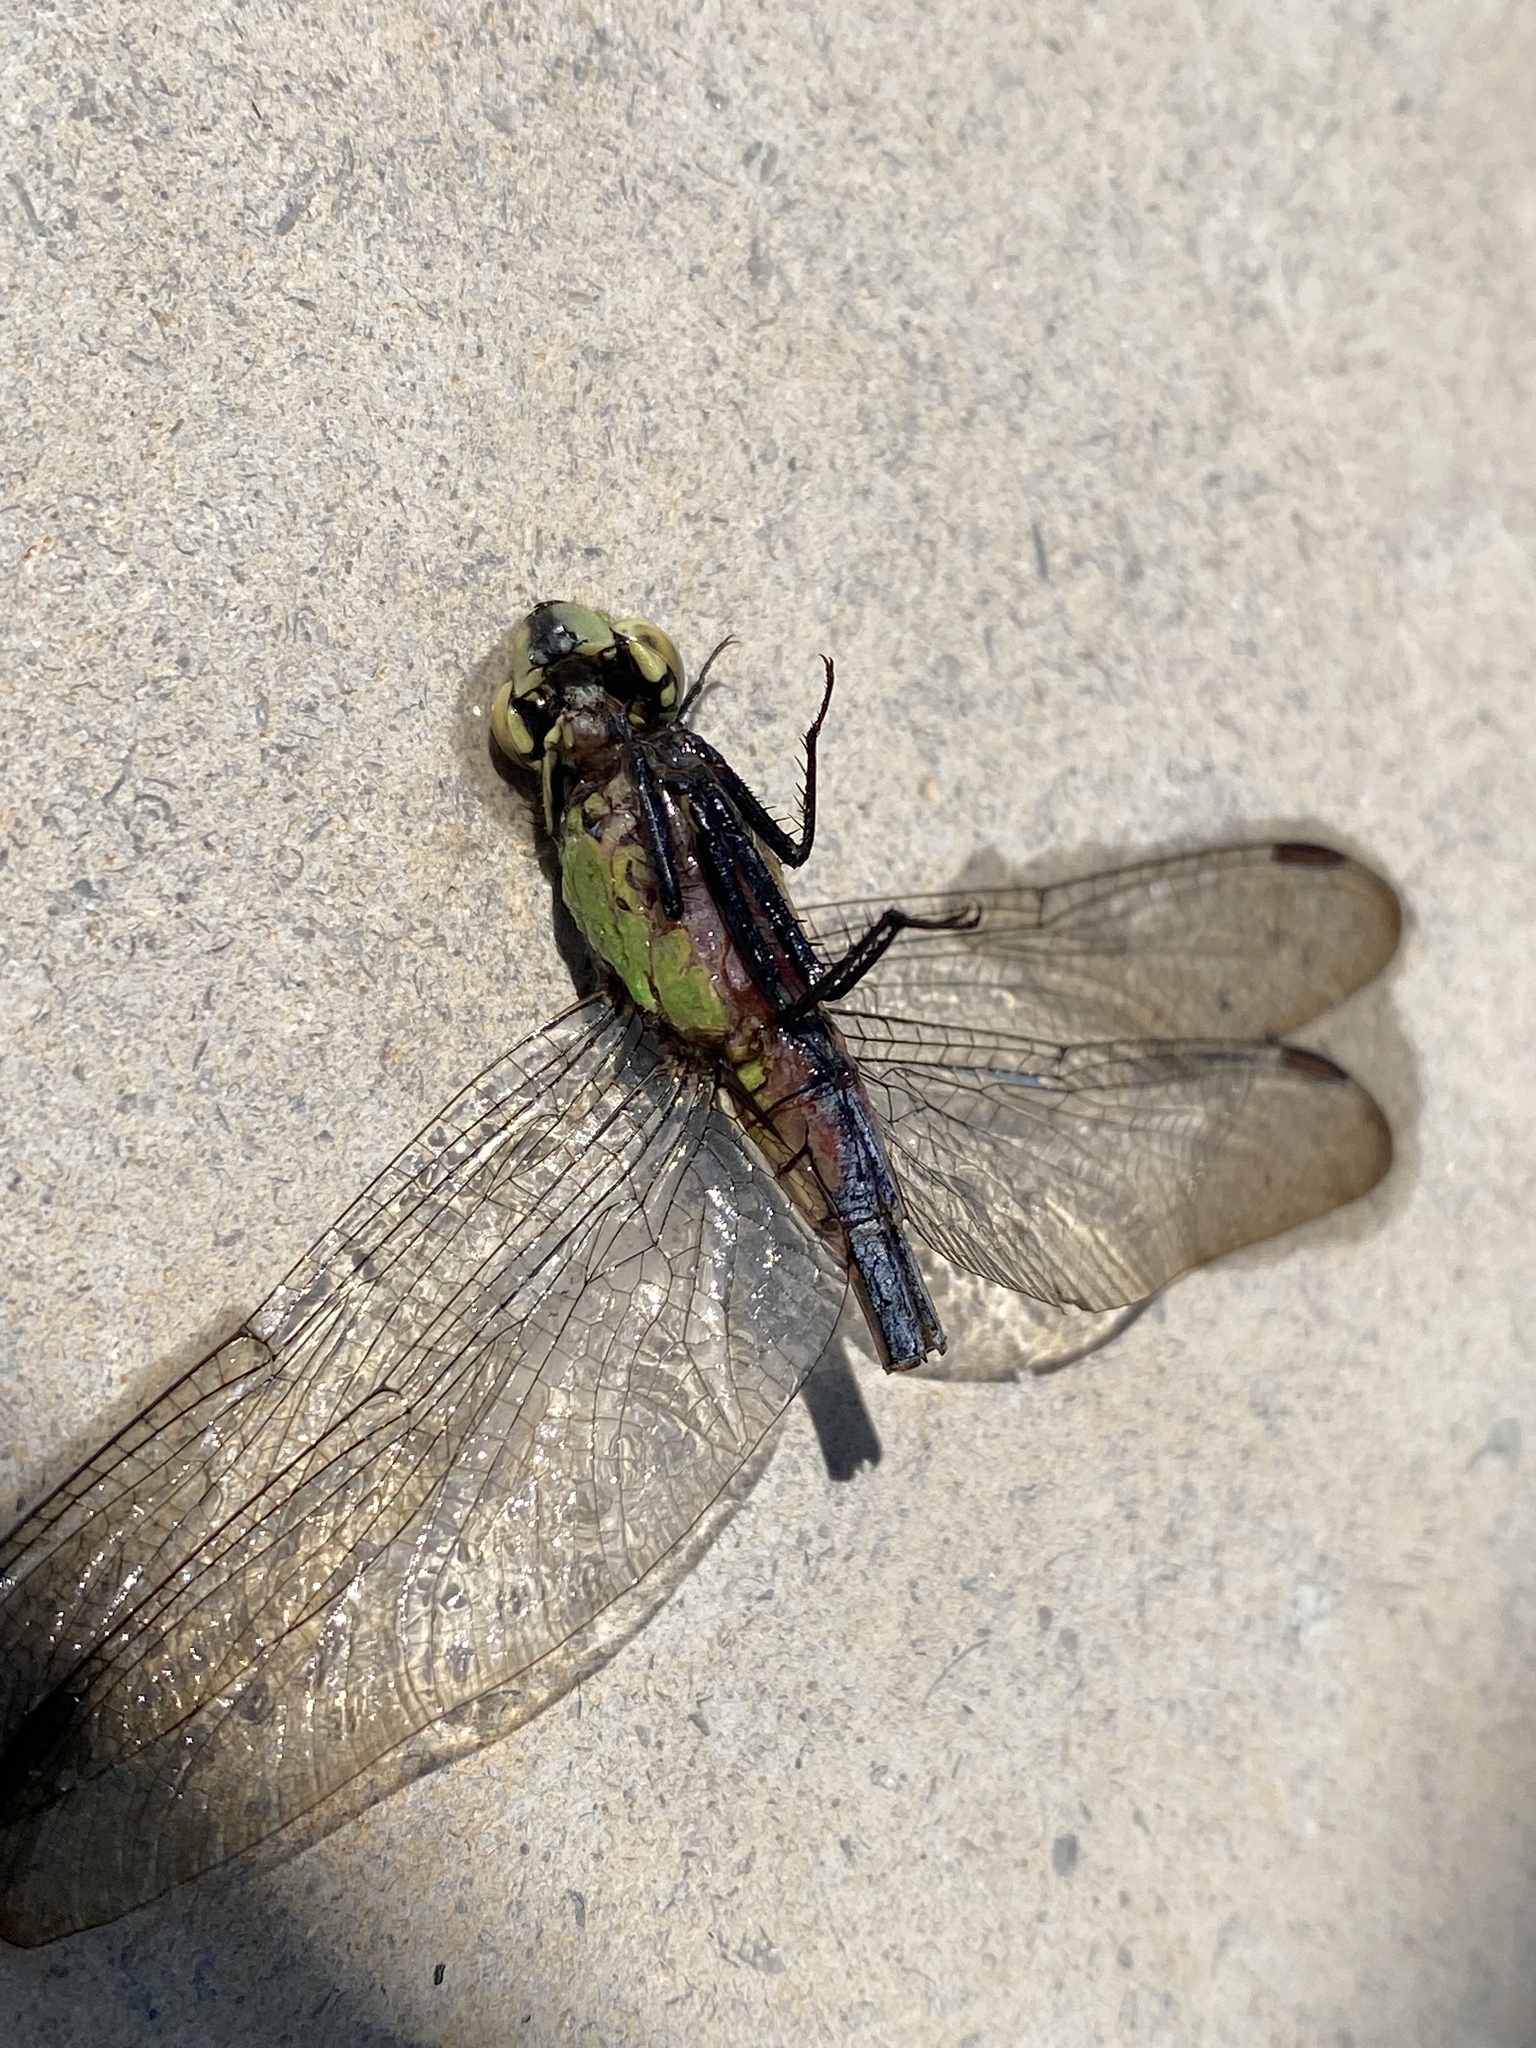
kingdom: Animalia
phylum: Arthropoda
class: Insecta
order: Odonata
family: Libellulidae
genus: Erythemis
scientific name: Erythemis simplicicollis
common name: Eastern pondhawk
